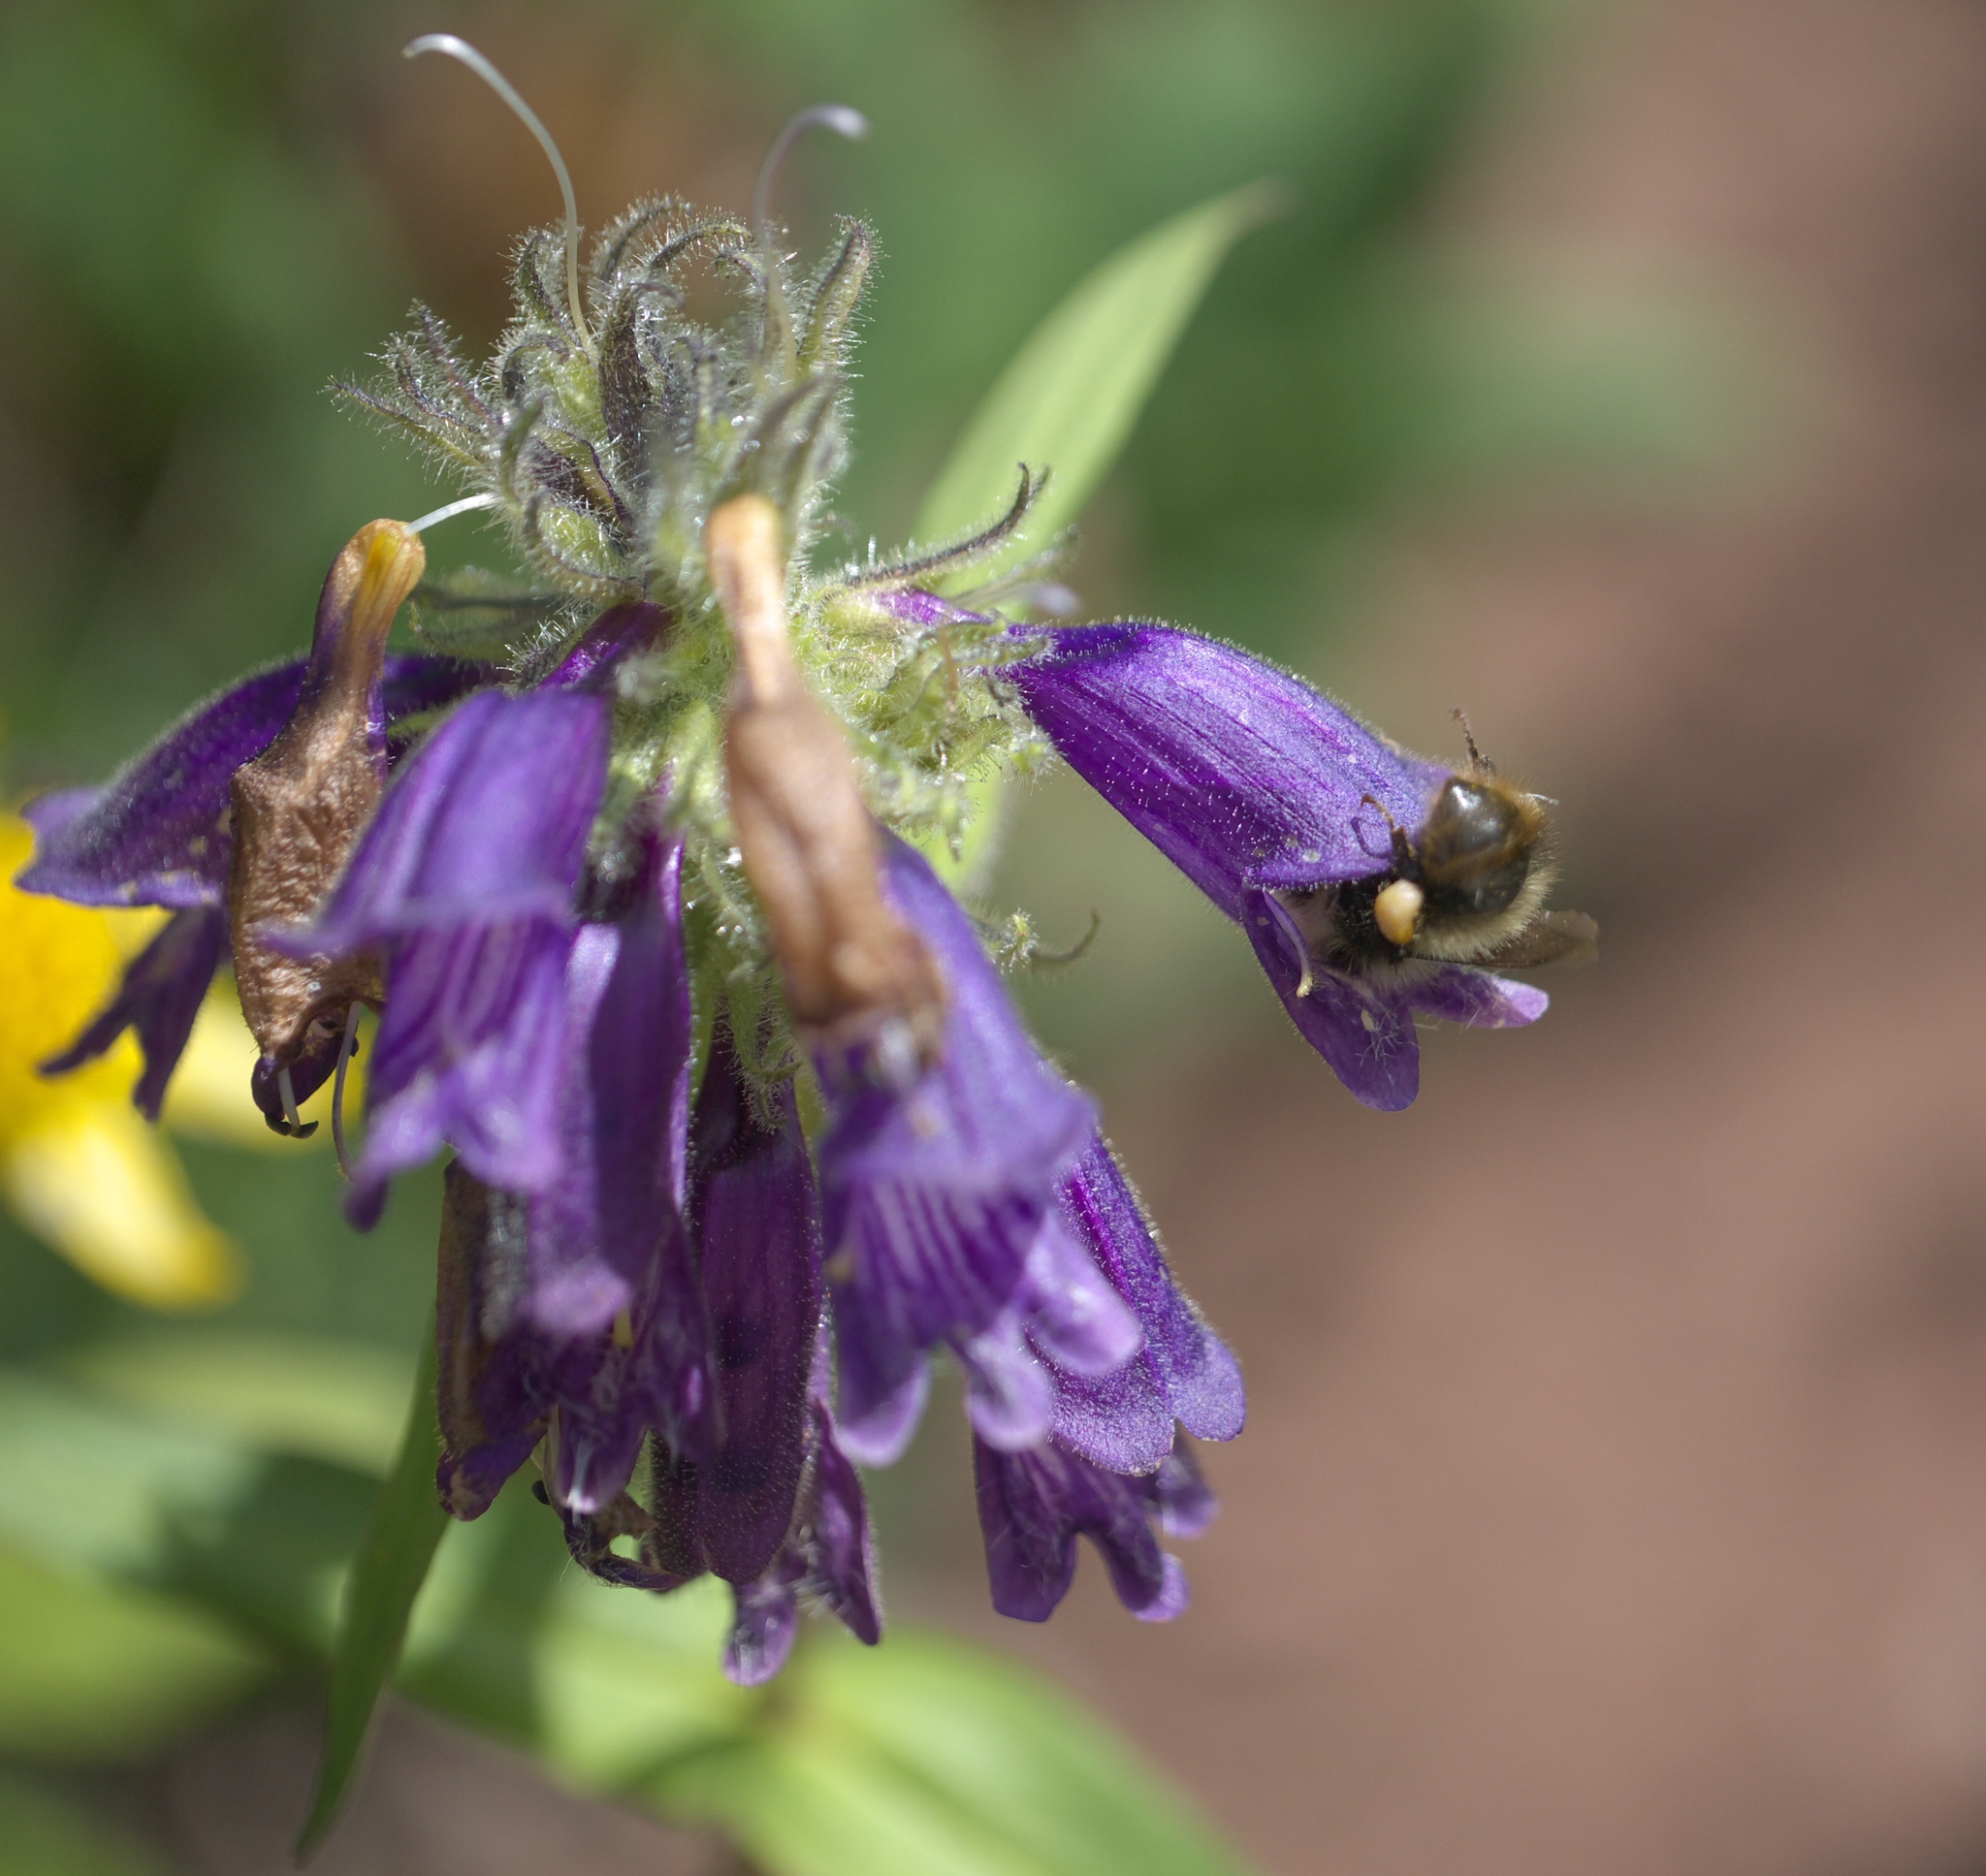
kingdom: Plantae
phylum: Tracheophyta
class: Magnoliopsida
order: Lamiales
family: Plantaginaceae
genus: Penstemon
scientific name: Penstemon whippleanus
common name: Whipple's penstemon
